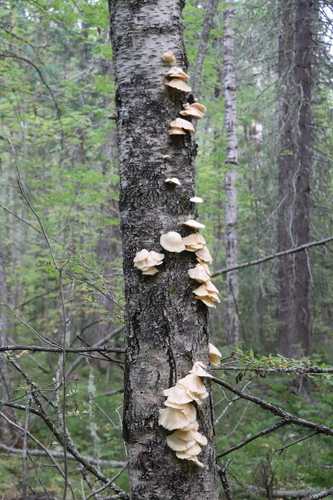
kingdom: Fungi
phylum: Basidiomycota
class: Agaricomycetes
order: Agaricales
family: Pleurotaceae
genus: Pleurotus
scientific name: Pleurotus pulmonarius
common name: Pale oyster
